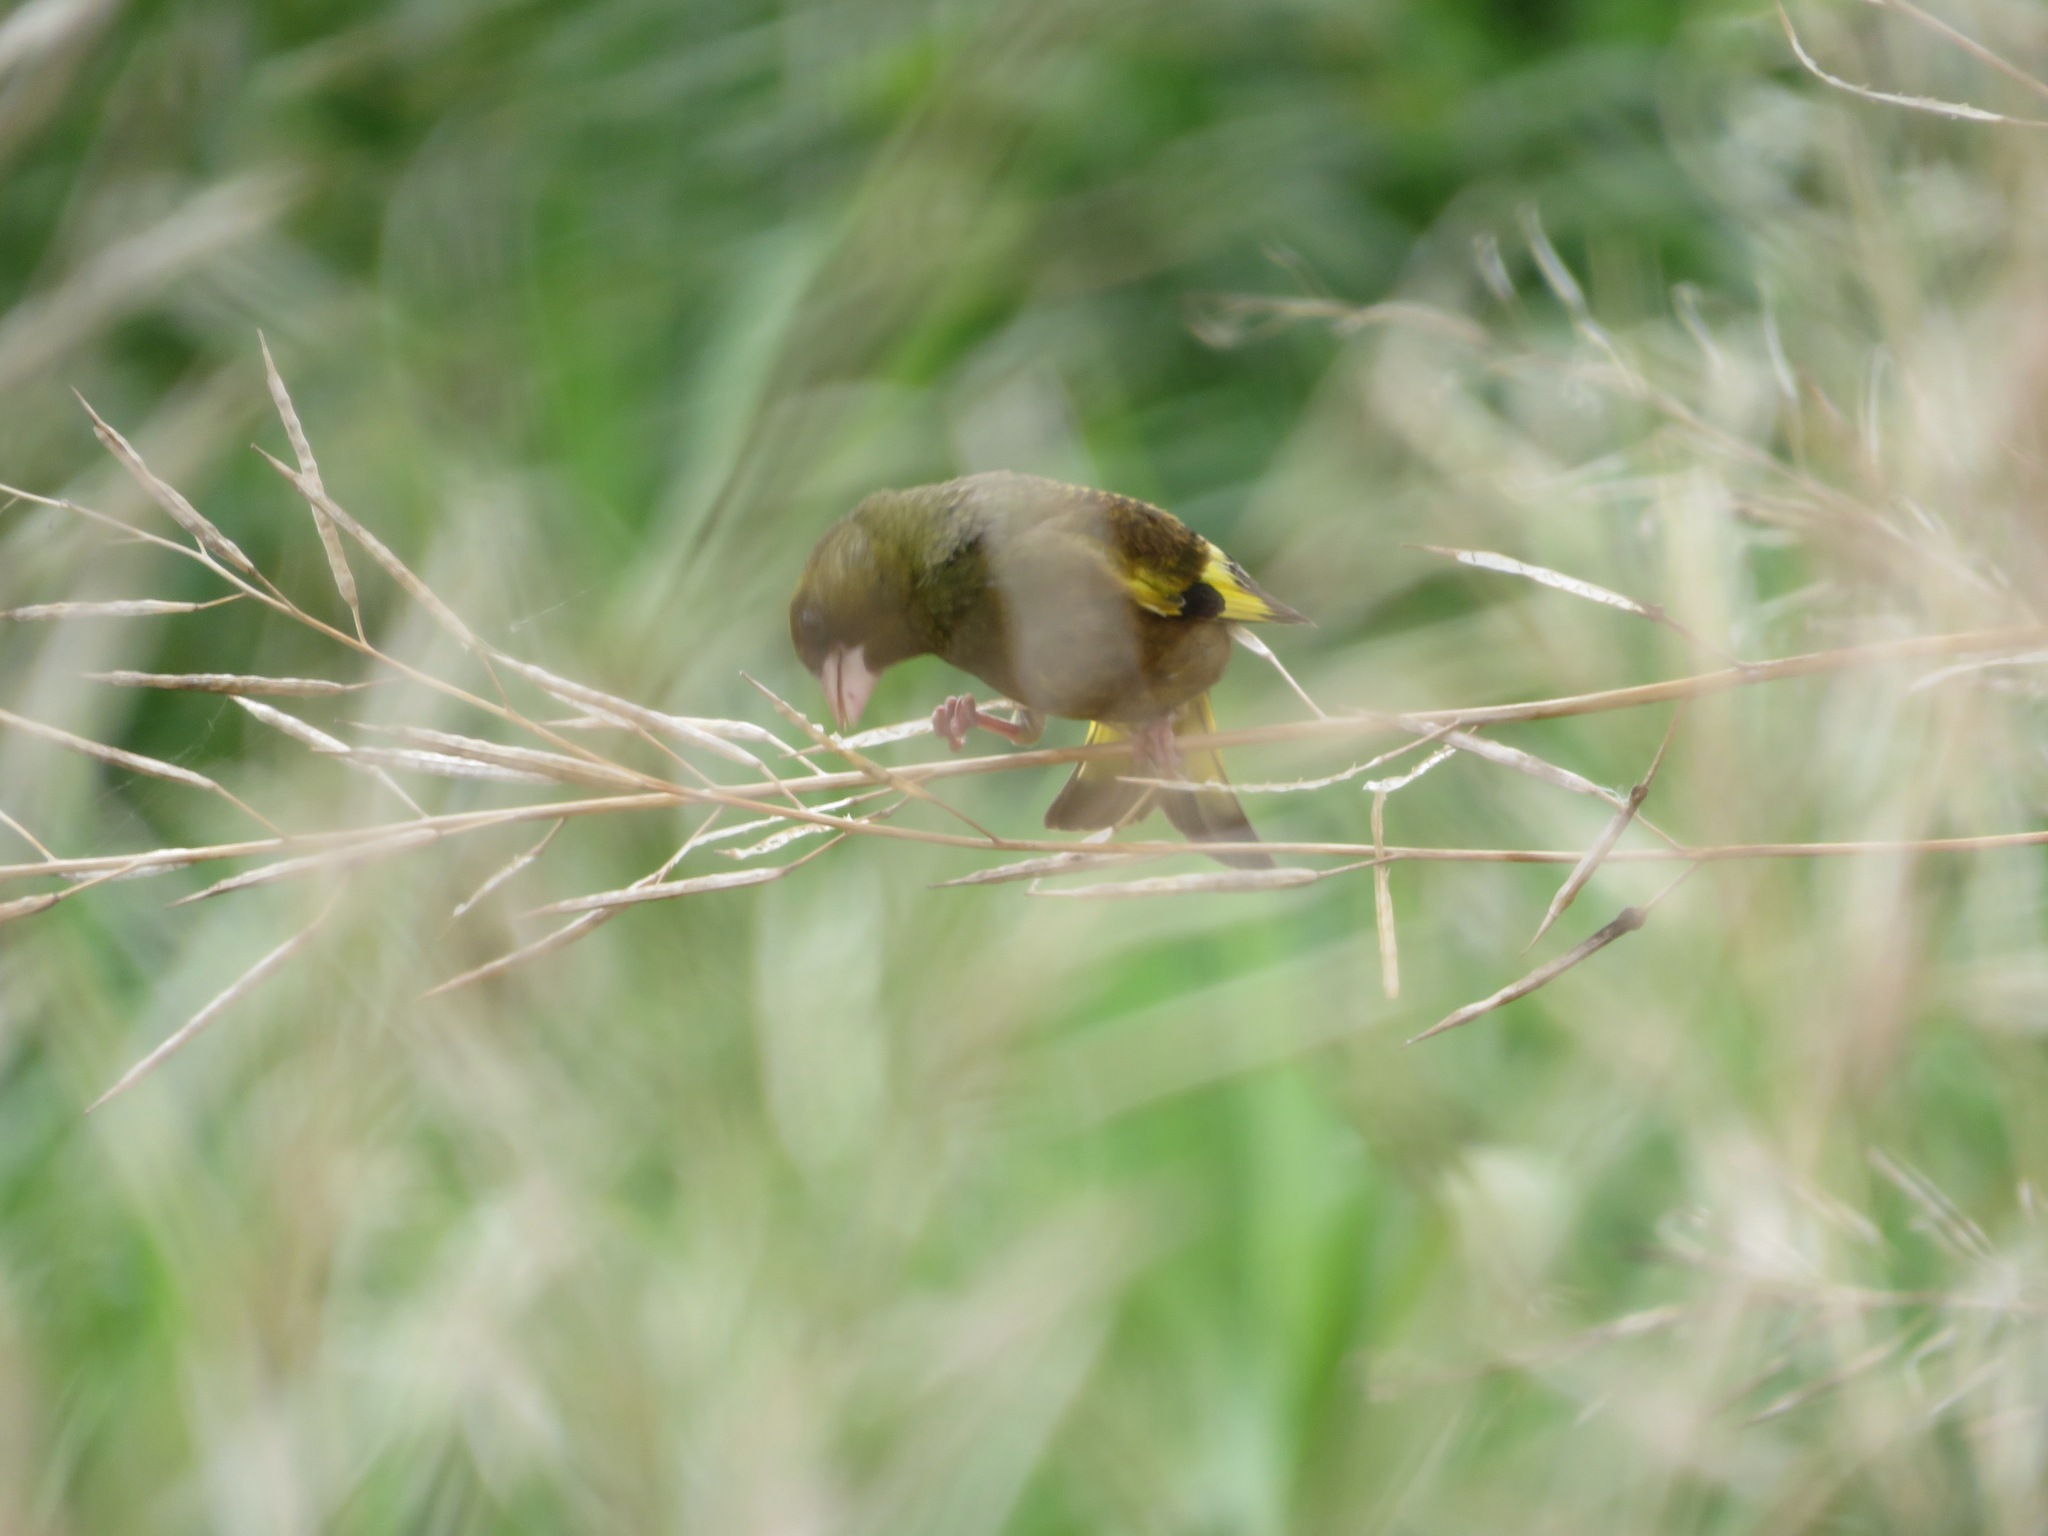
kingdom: Plantae
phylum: Tracheophyta
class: Liliopsida
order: Poales
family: Poaceae
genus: Chloris
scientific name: Chloris sinica
